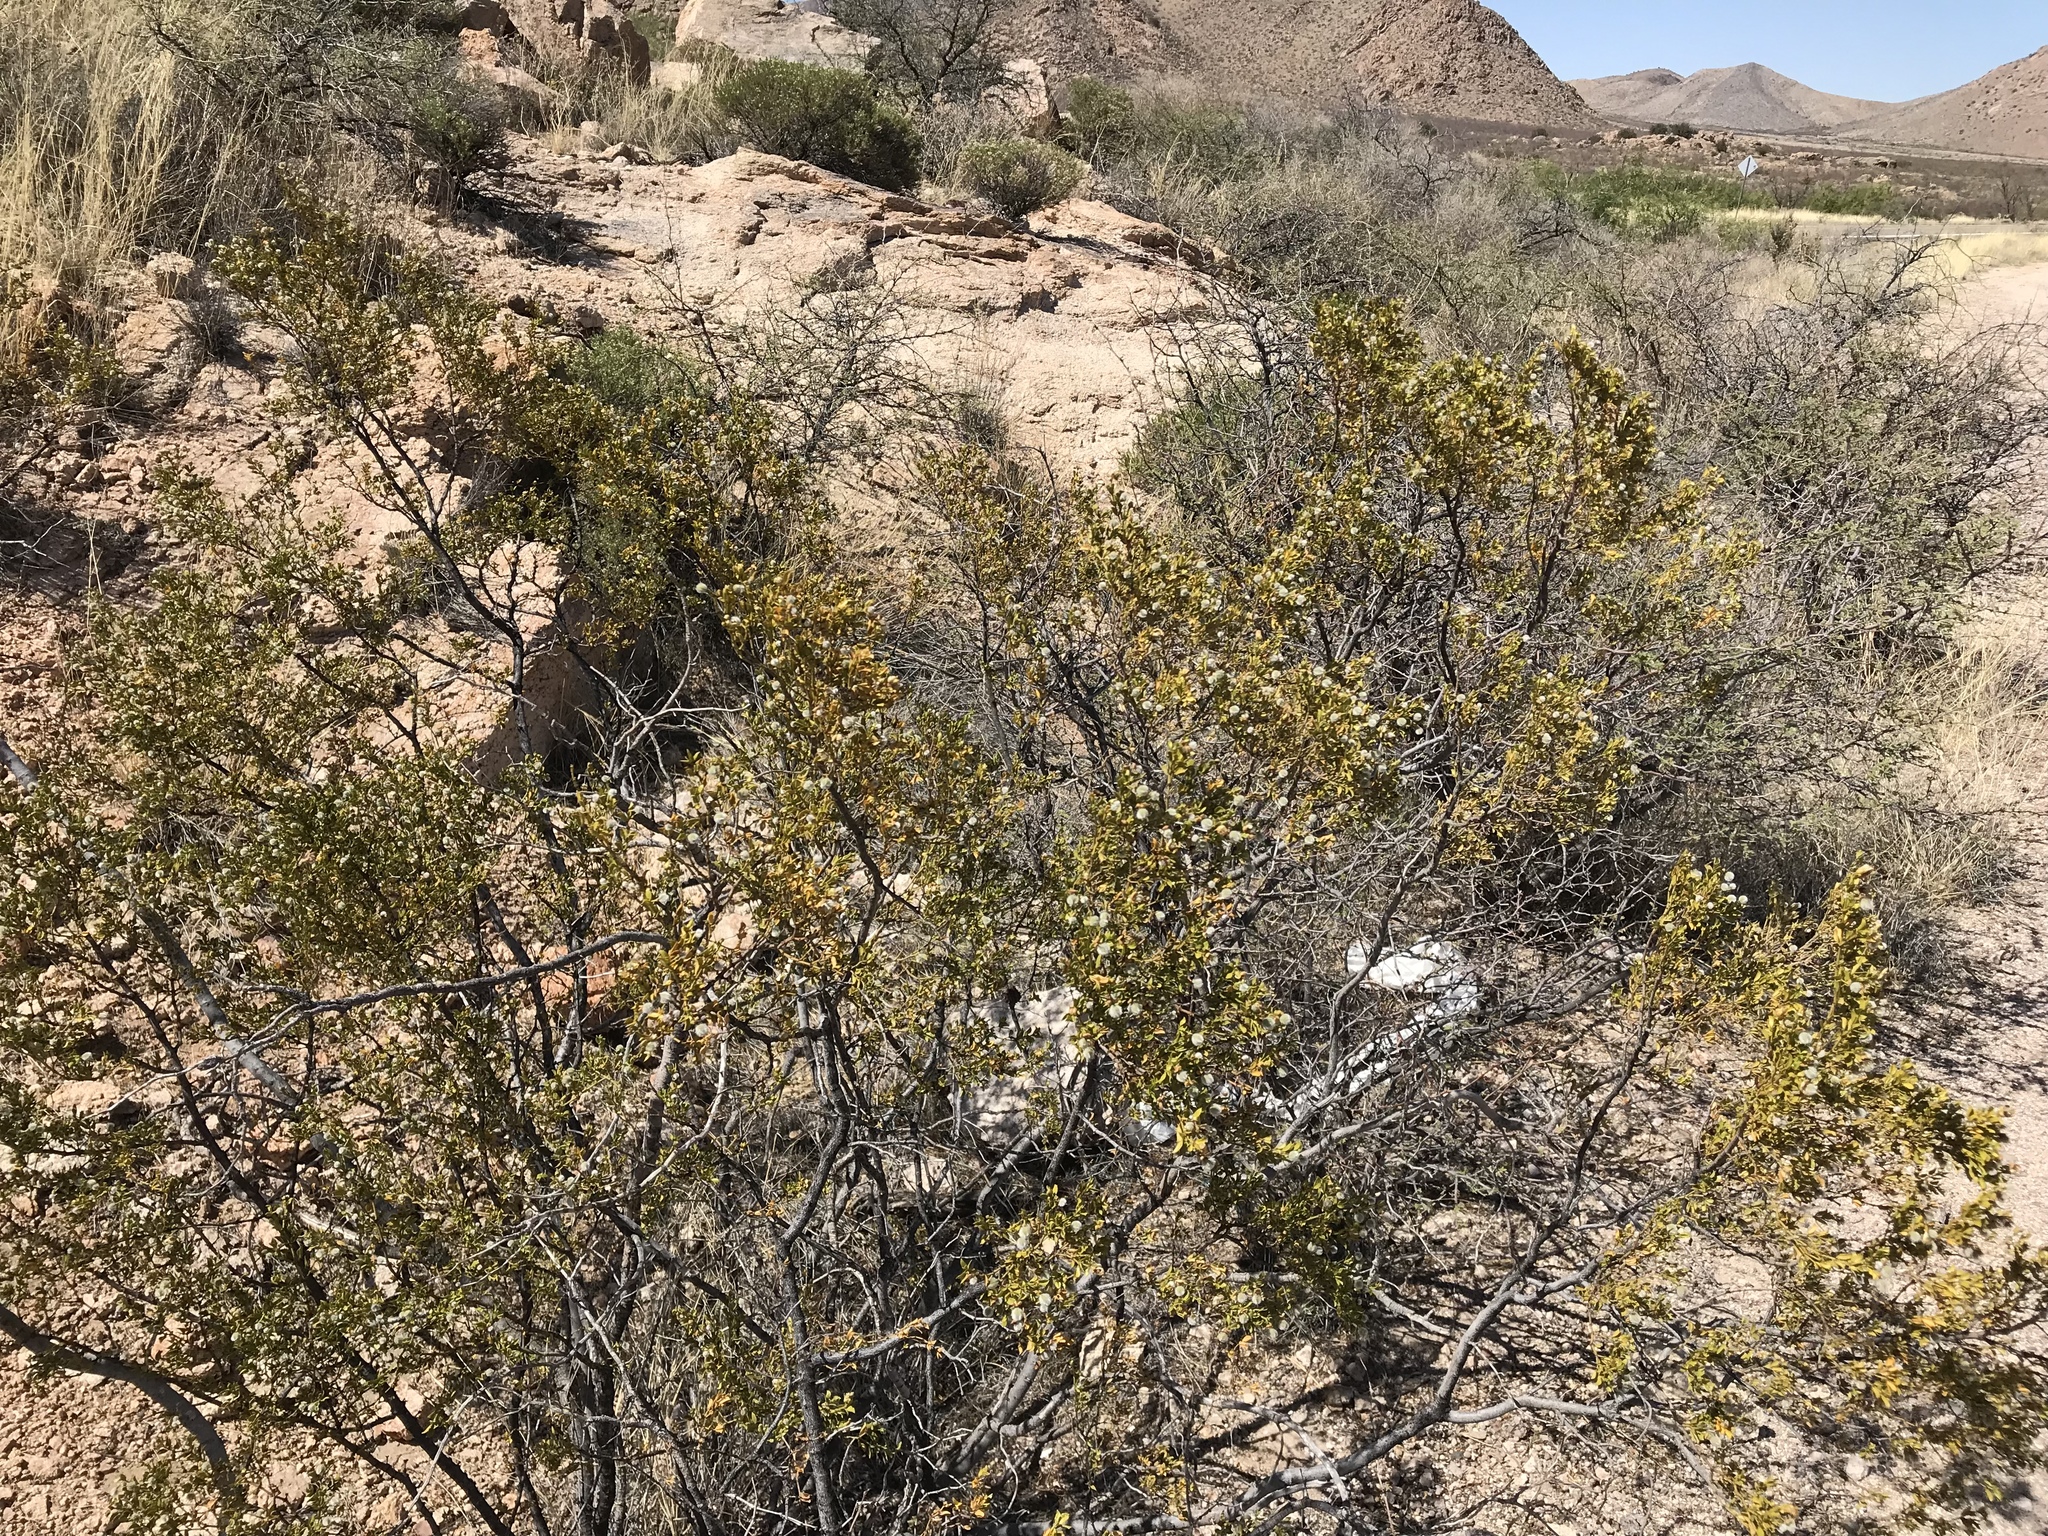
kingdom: Plantae
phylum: Tracheophyta
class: Magnoliopsida
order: Zygophyllales
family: Zygophyllaceae
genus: Larrea
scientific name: Larrea tridentata
